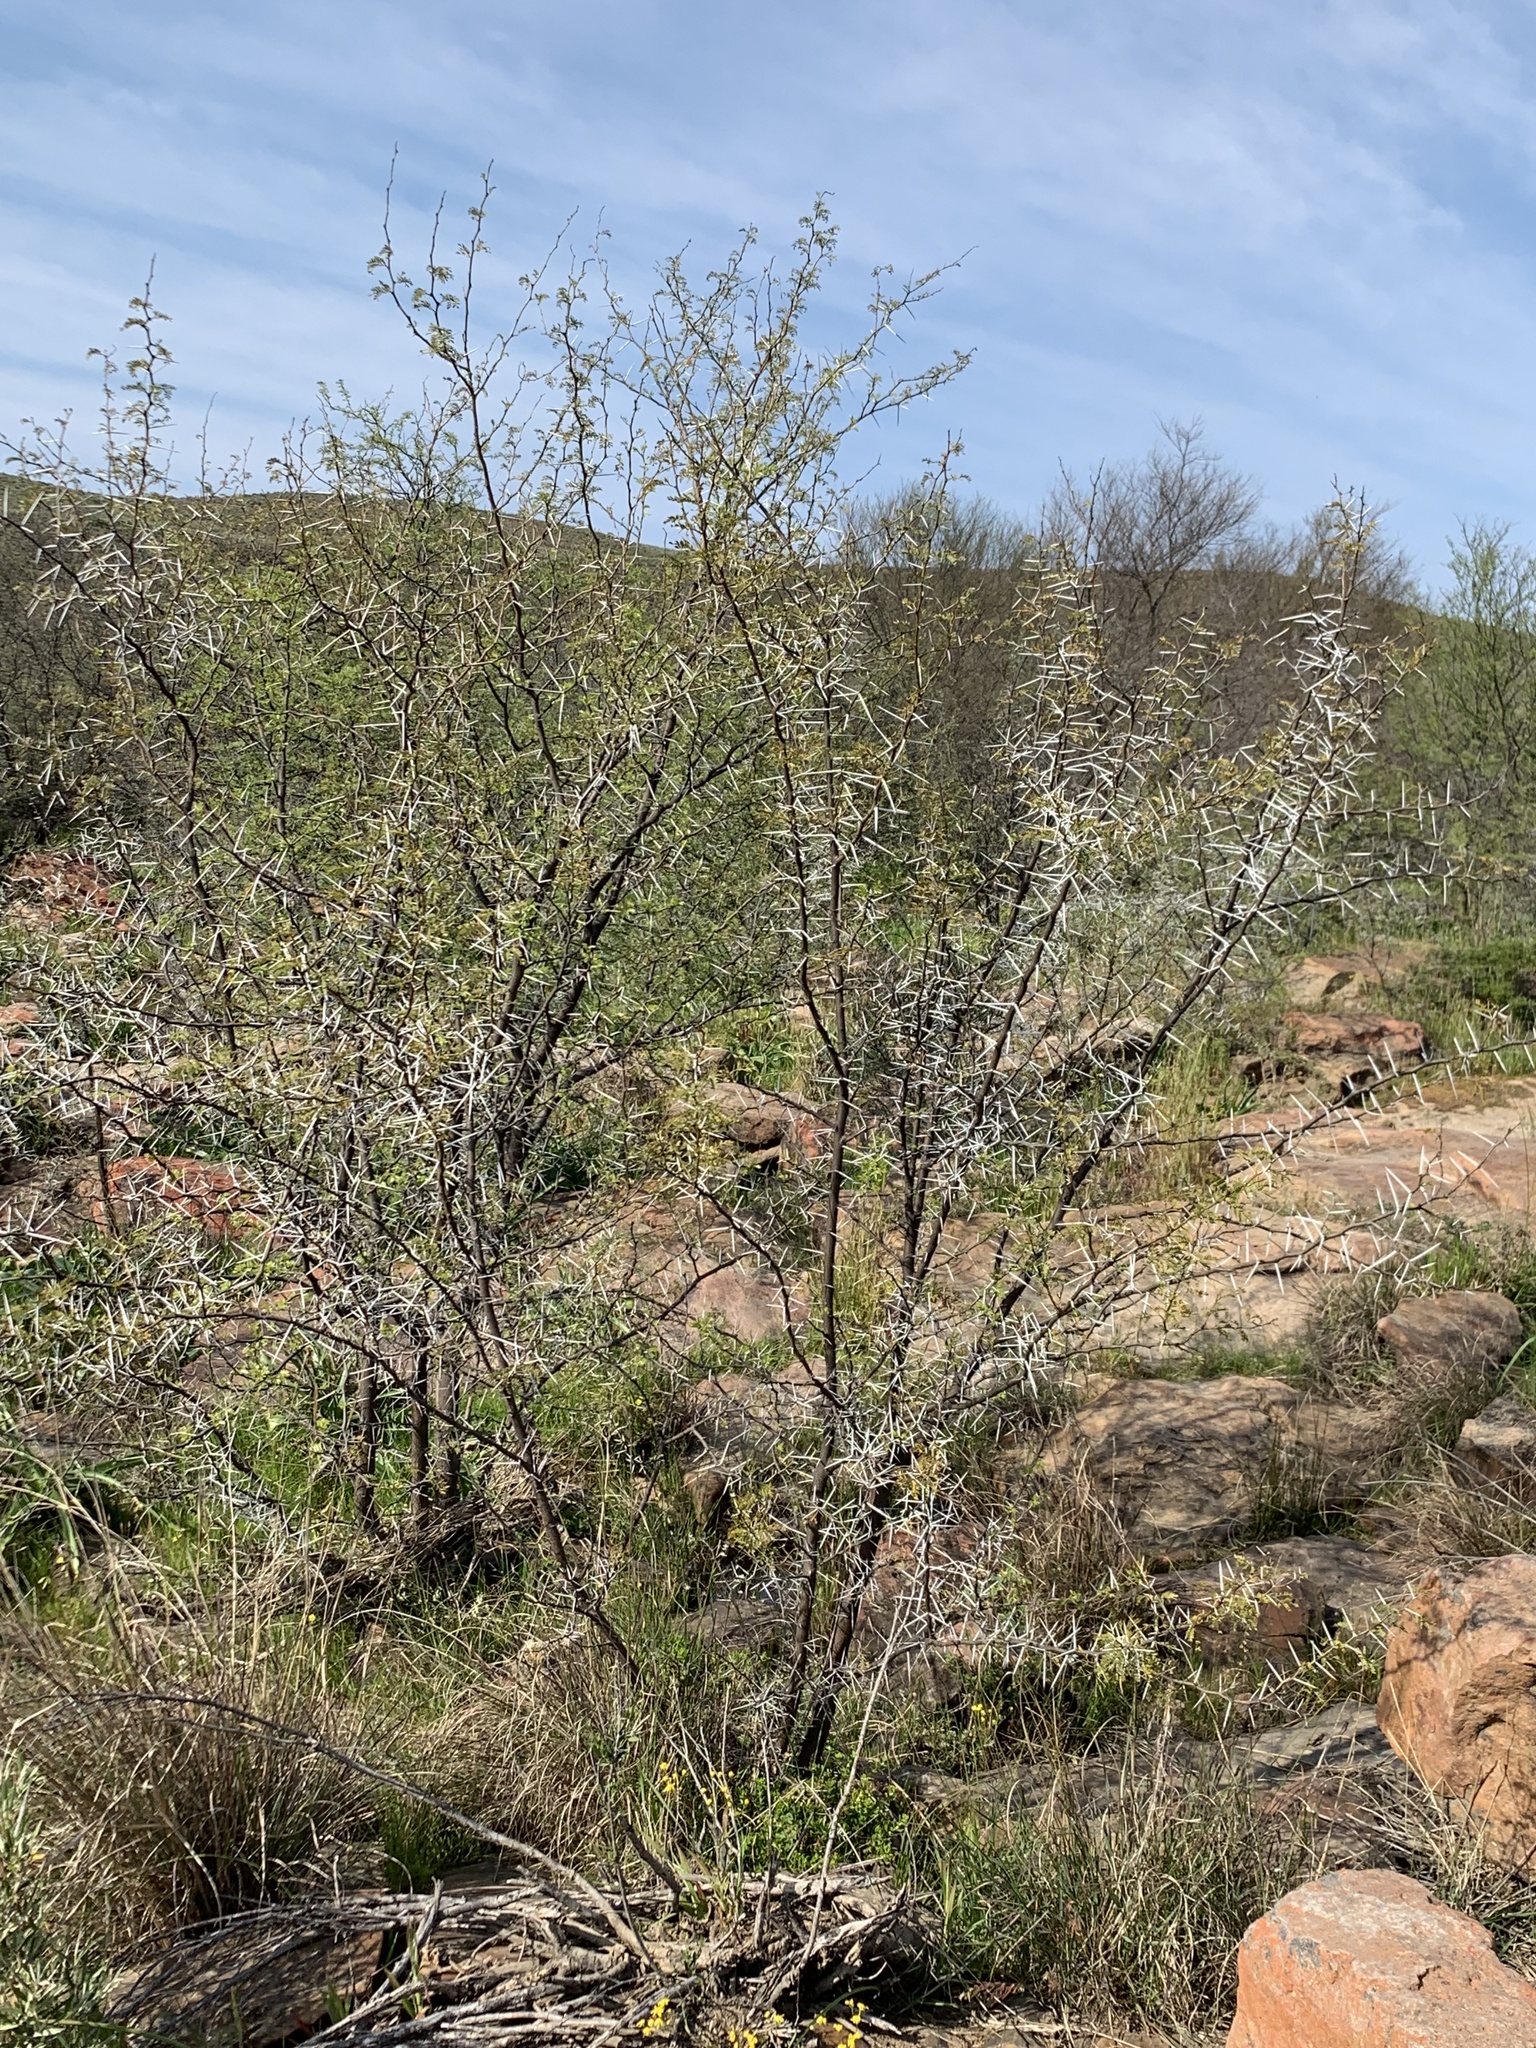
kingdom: Plantae
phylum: Tracheophyta
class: Magnoliopsida
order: Fabales
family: Fabaceae
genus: Vachellia
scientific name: Vachellia karroo
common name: Sweet thorn
